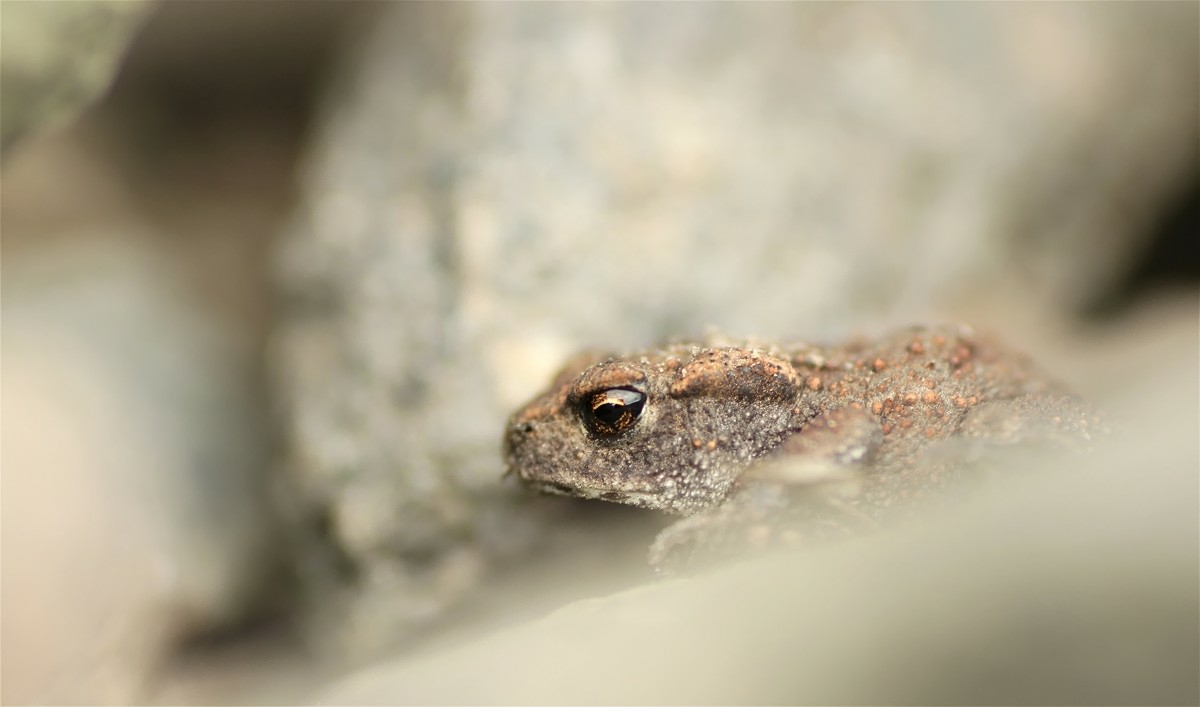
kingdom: Animalia
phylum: Chordata
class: Amphibia
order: Anura
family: Bufonidae
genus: Bufo
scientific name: Bufo bufo
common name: Common toad
